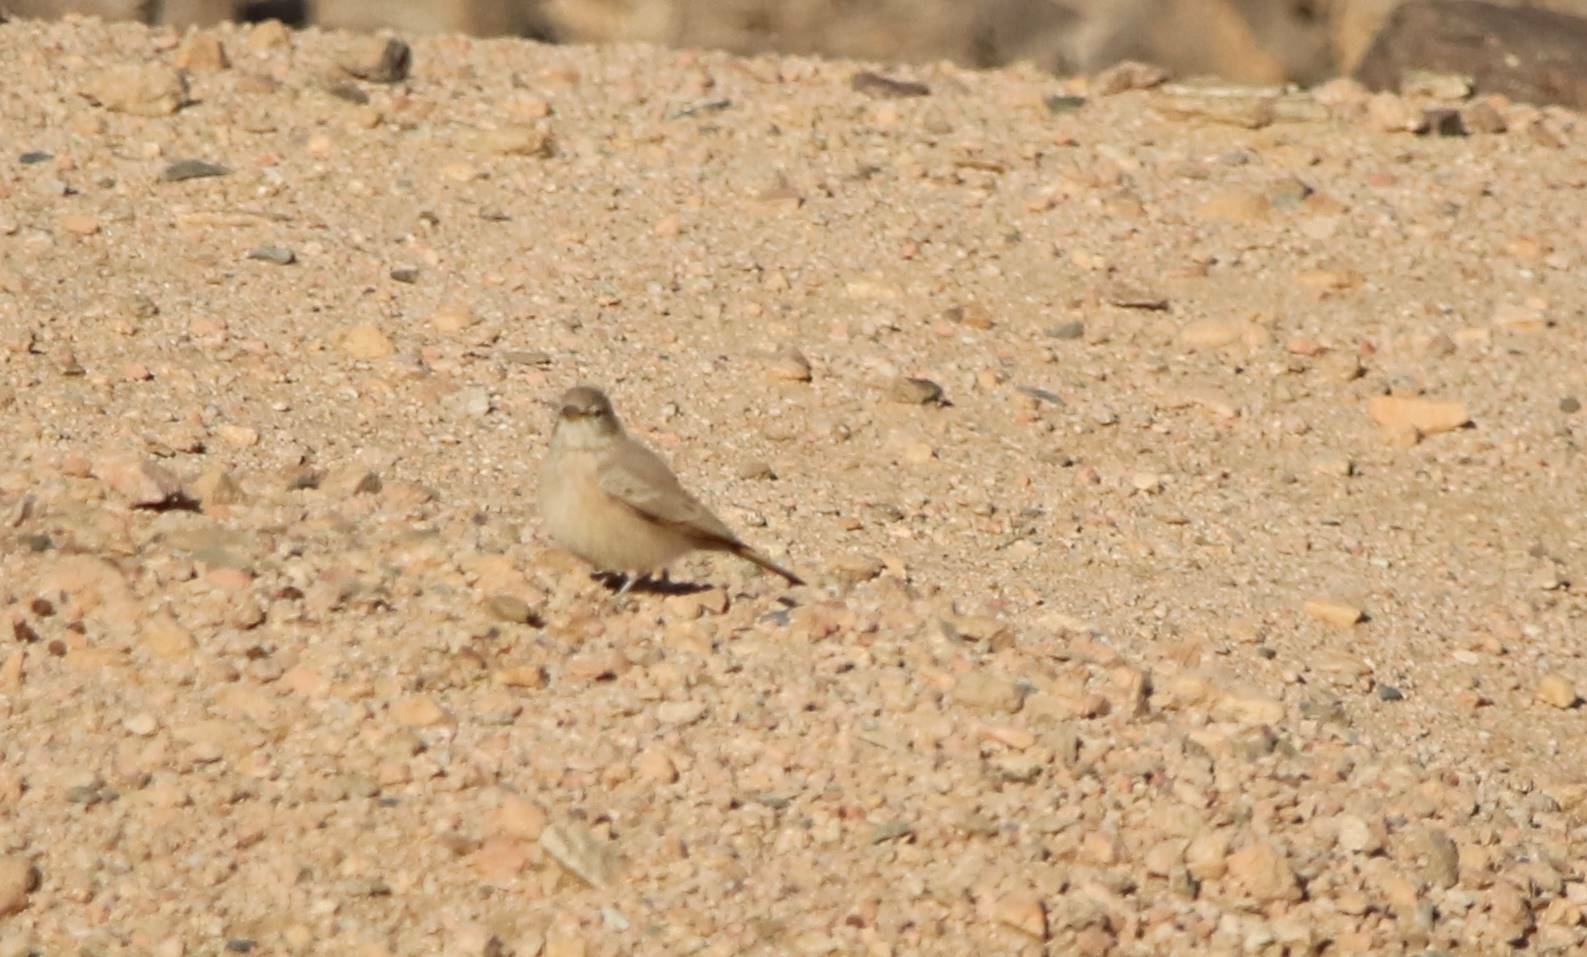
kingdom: Animalia
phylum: Chordata
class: Aves
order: Passeriformes
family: Alaudidae
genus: Ammomanes
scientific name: Ammomanes deserti
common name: Desert lark
